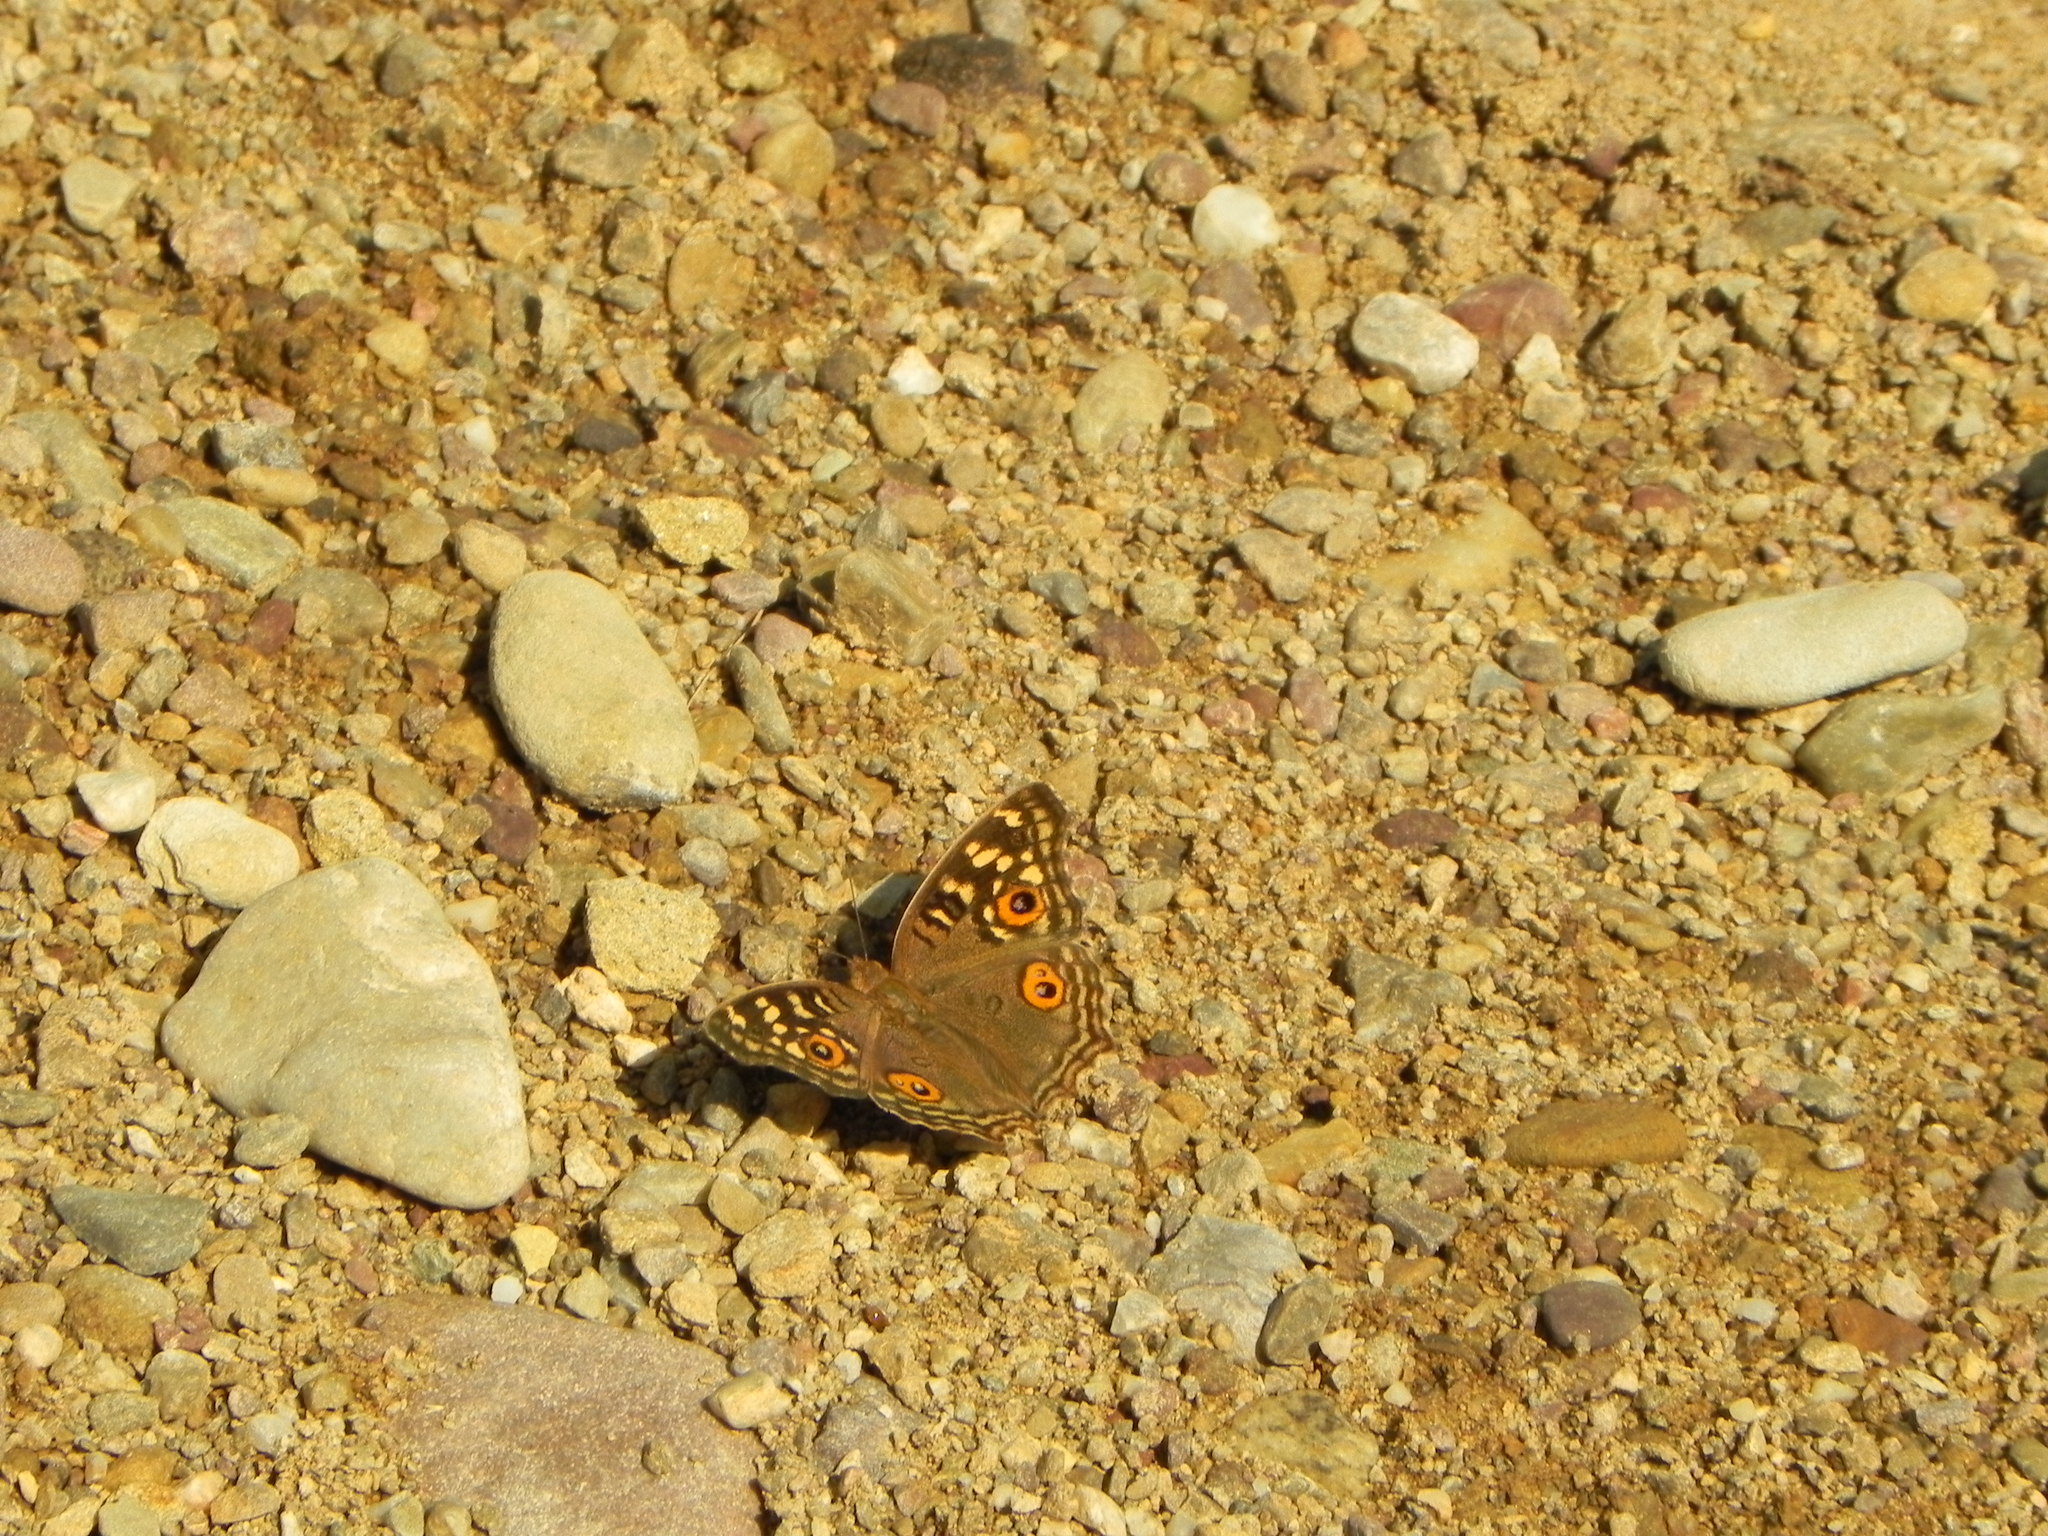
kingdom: Animalia
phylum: Arthropoda
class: Insecta
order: Lepidoptera
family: Nymphalidae
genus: Junonia
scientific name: Junonia lemonias
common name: Lemon pansy
